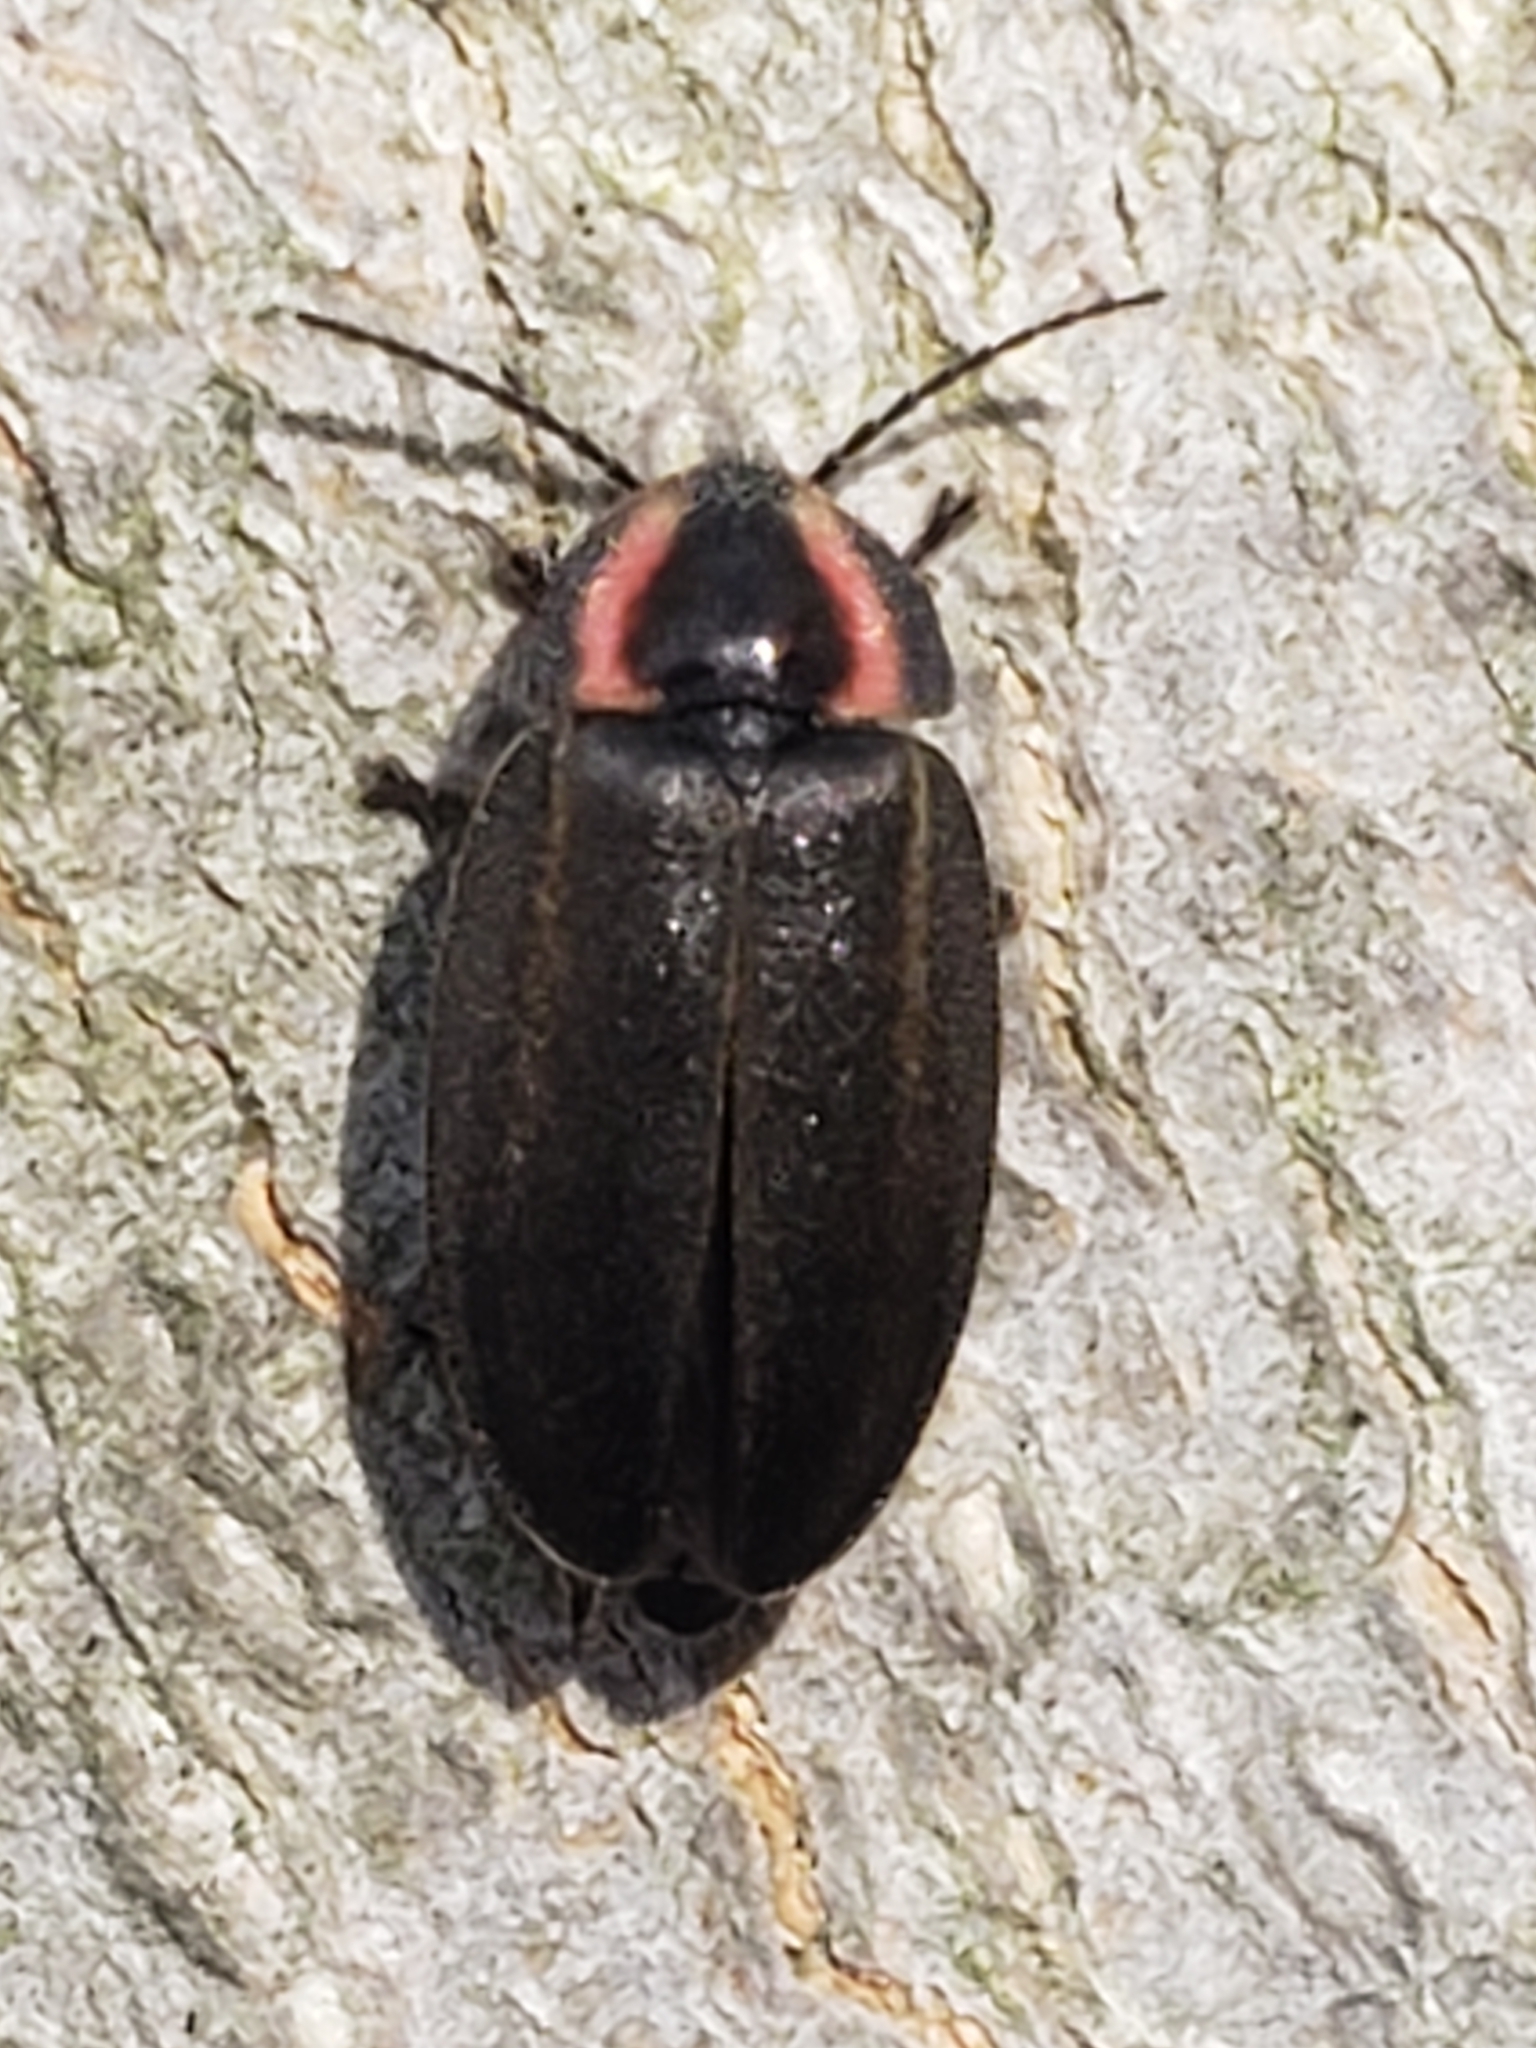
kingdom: Animalia
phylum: Arthropoda
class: Insecta
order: Coleoptera
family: Lampyridae
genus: Photinus
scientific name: Photinus corrusca
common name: Winter firefly
